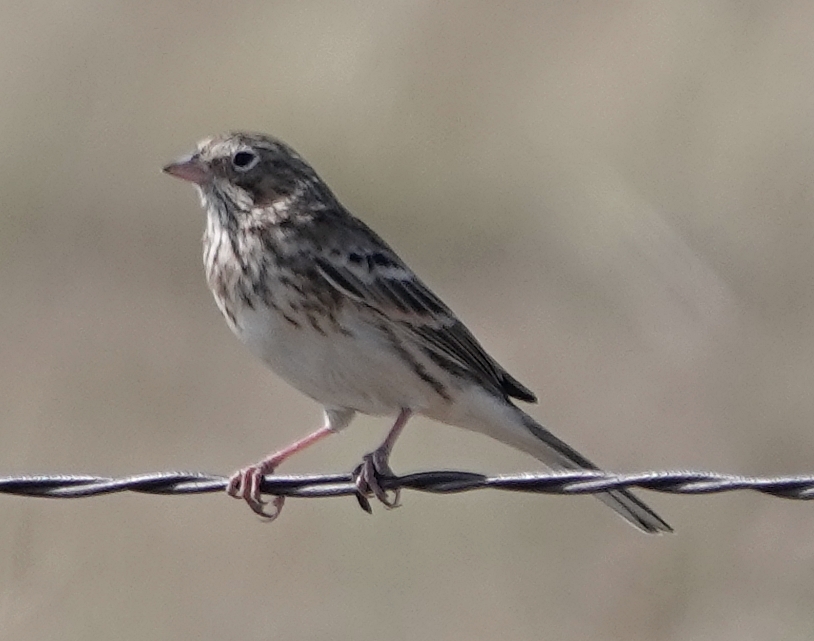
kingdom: Animalia
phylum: Chordata
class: Aves
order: Passeriformes
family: Passerellidae
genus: Pooecetes
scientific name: Pooecetes gramineus
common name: Vesper sparrow
